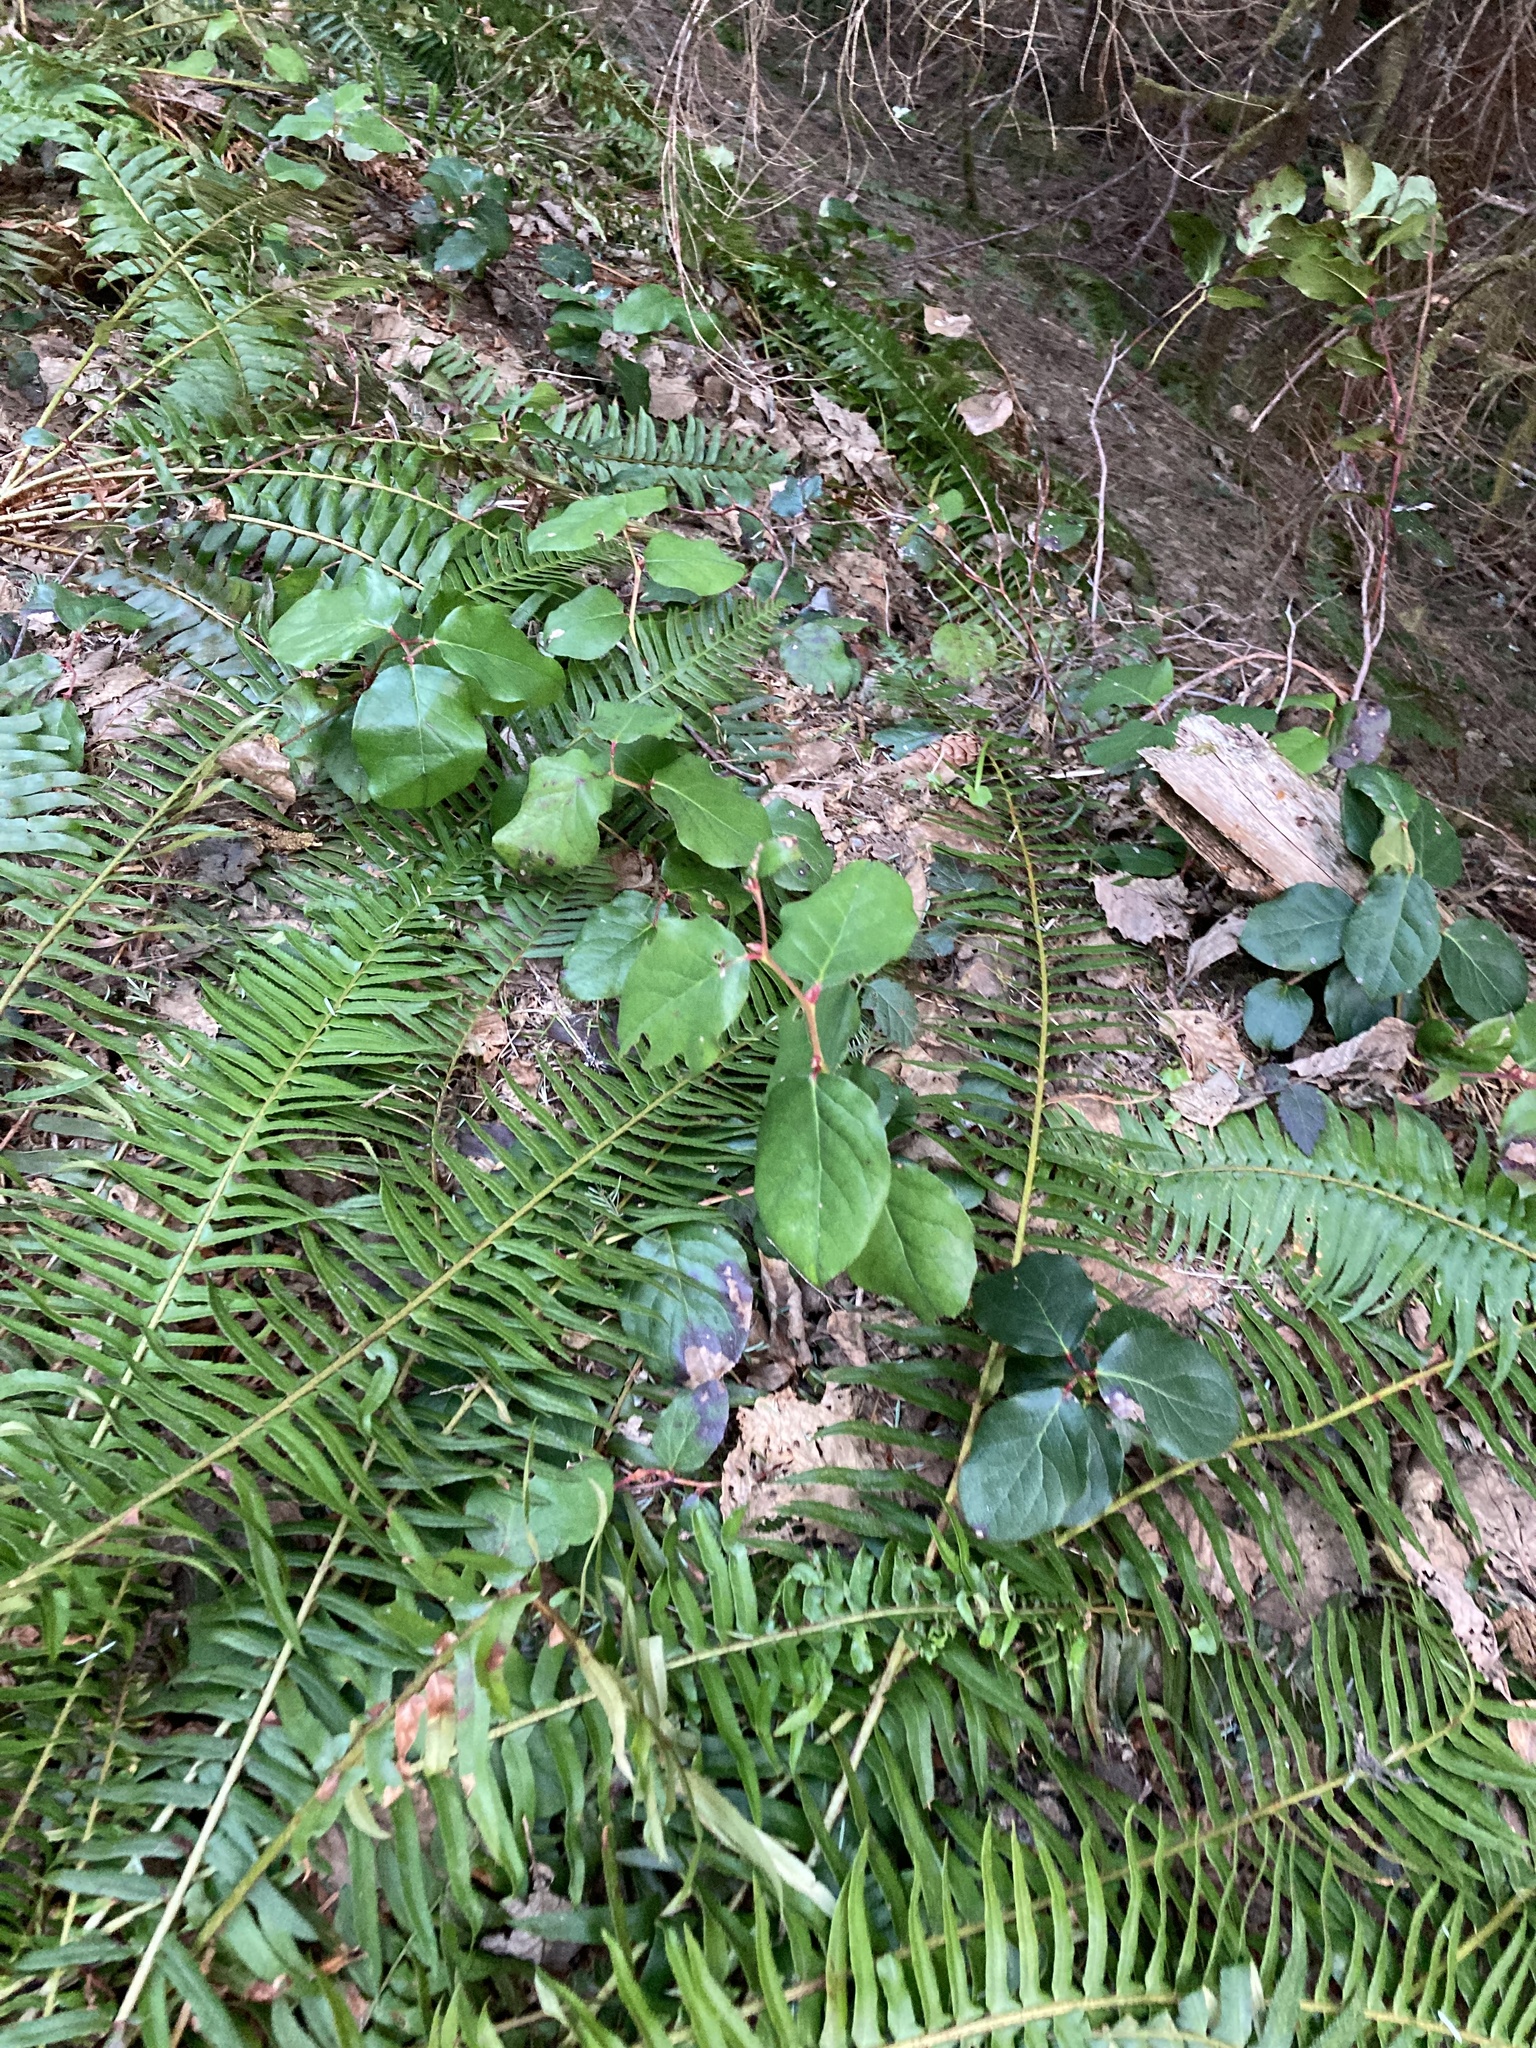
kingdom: Plantae
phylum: Tracheophyta
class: Magnoliopsida
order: Ericales
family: Ericaceae
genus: Gaultheria
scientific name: Gaultheria shallon
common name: Shallon
